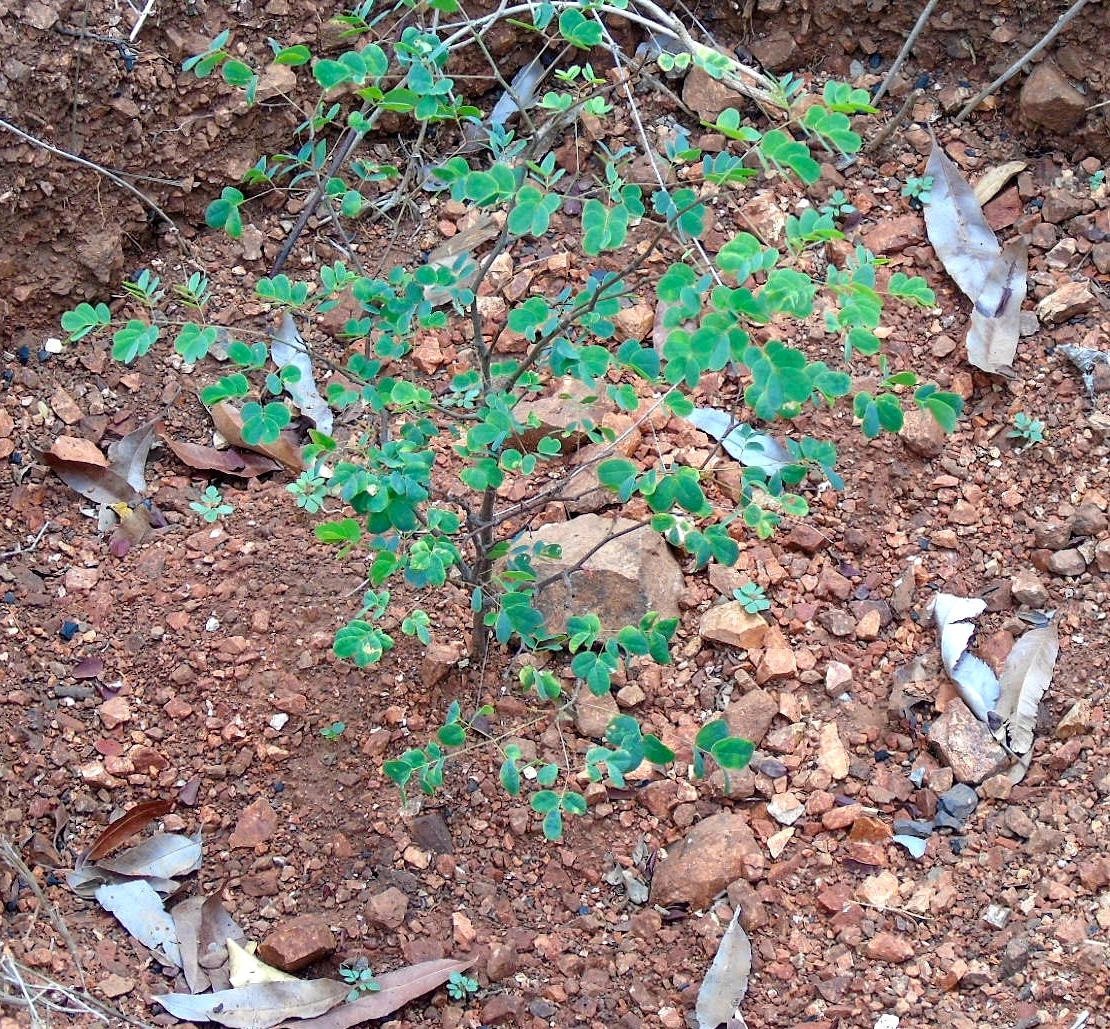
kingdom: Plantae
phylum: Tracheophyta
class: Magnoliopsida
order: Fabales
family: Fabaceae
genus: Libidibia
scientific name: Libidibia sclerocarpa
